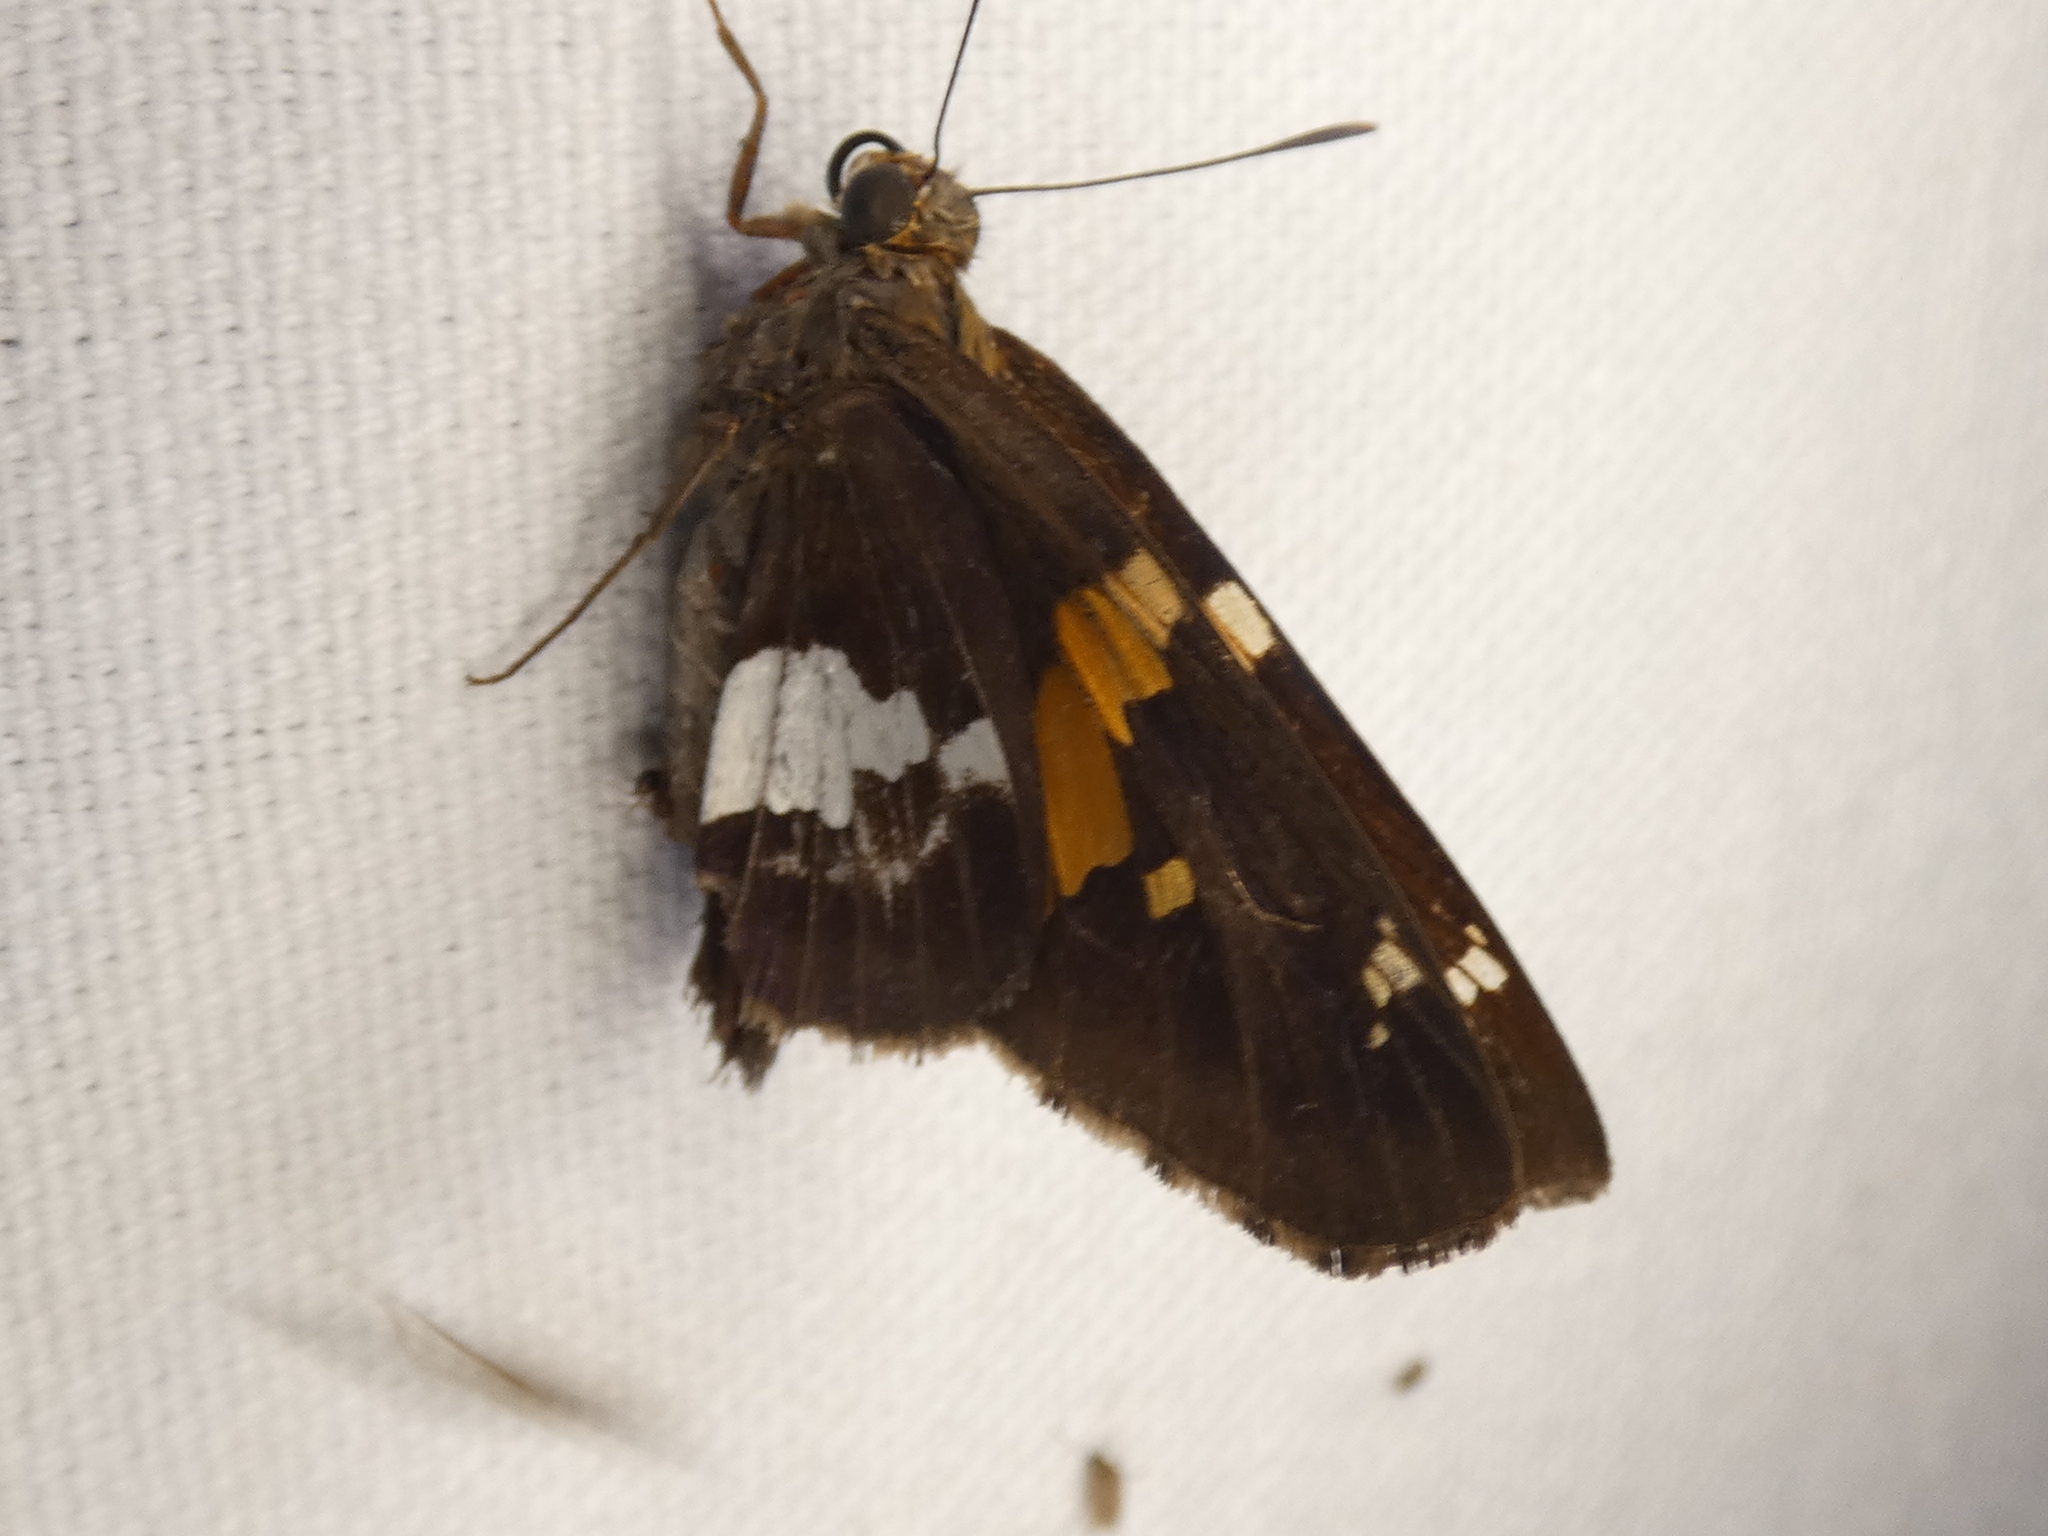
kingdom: Animalia
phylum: Arthropoda
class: Insecta
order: Lepidoptera
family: Hesperiidae
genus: Epargyreus
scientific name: Epargyreus clarus
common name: Silver-spotted skipper
